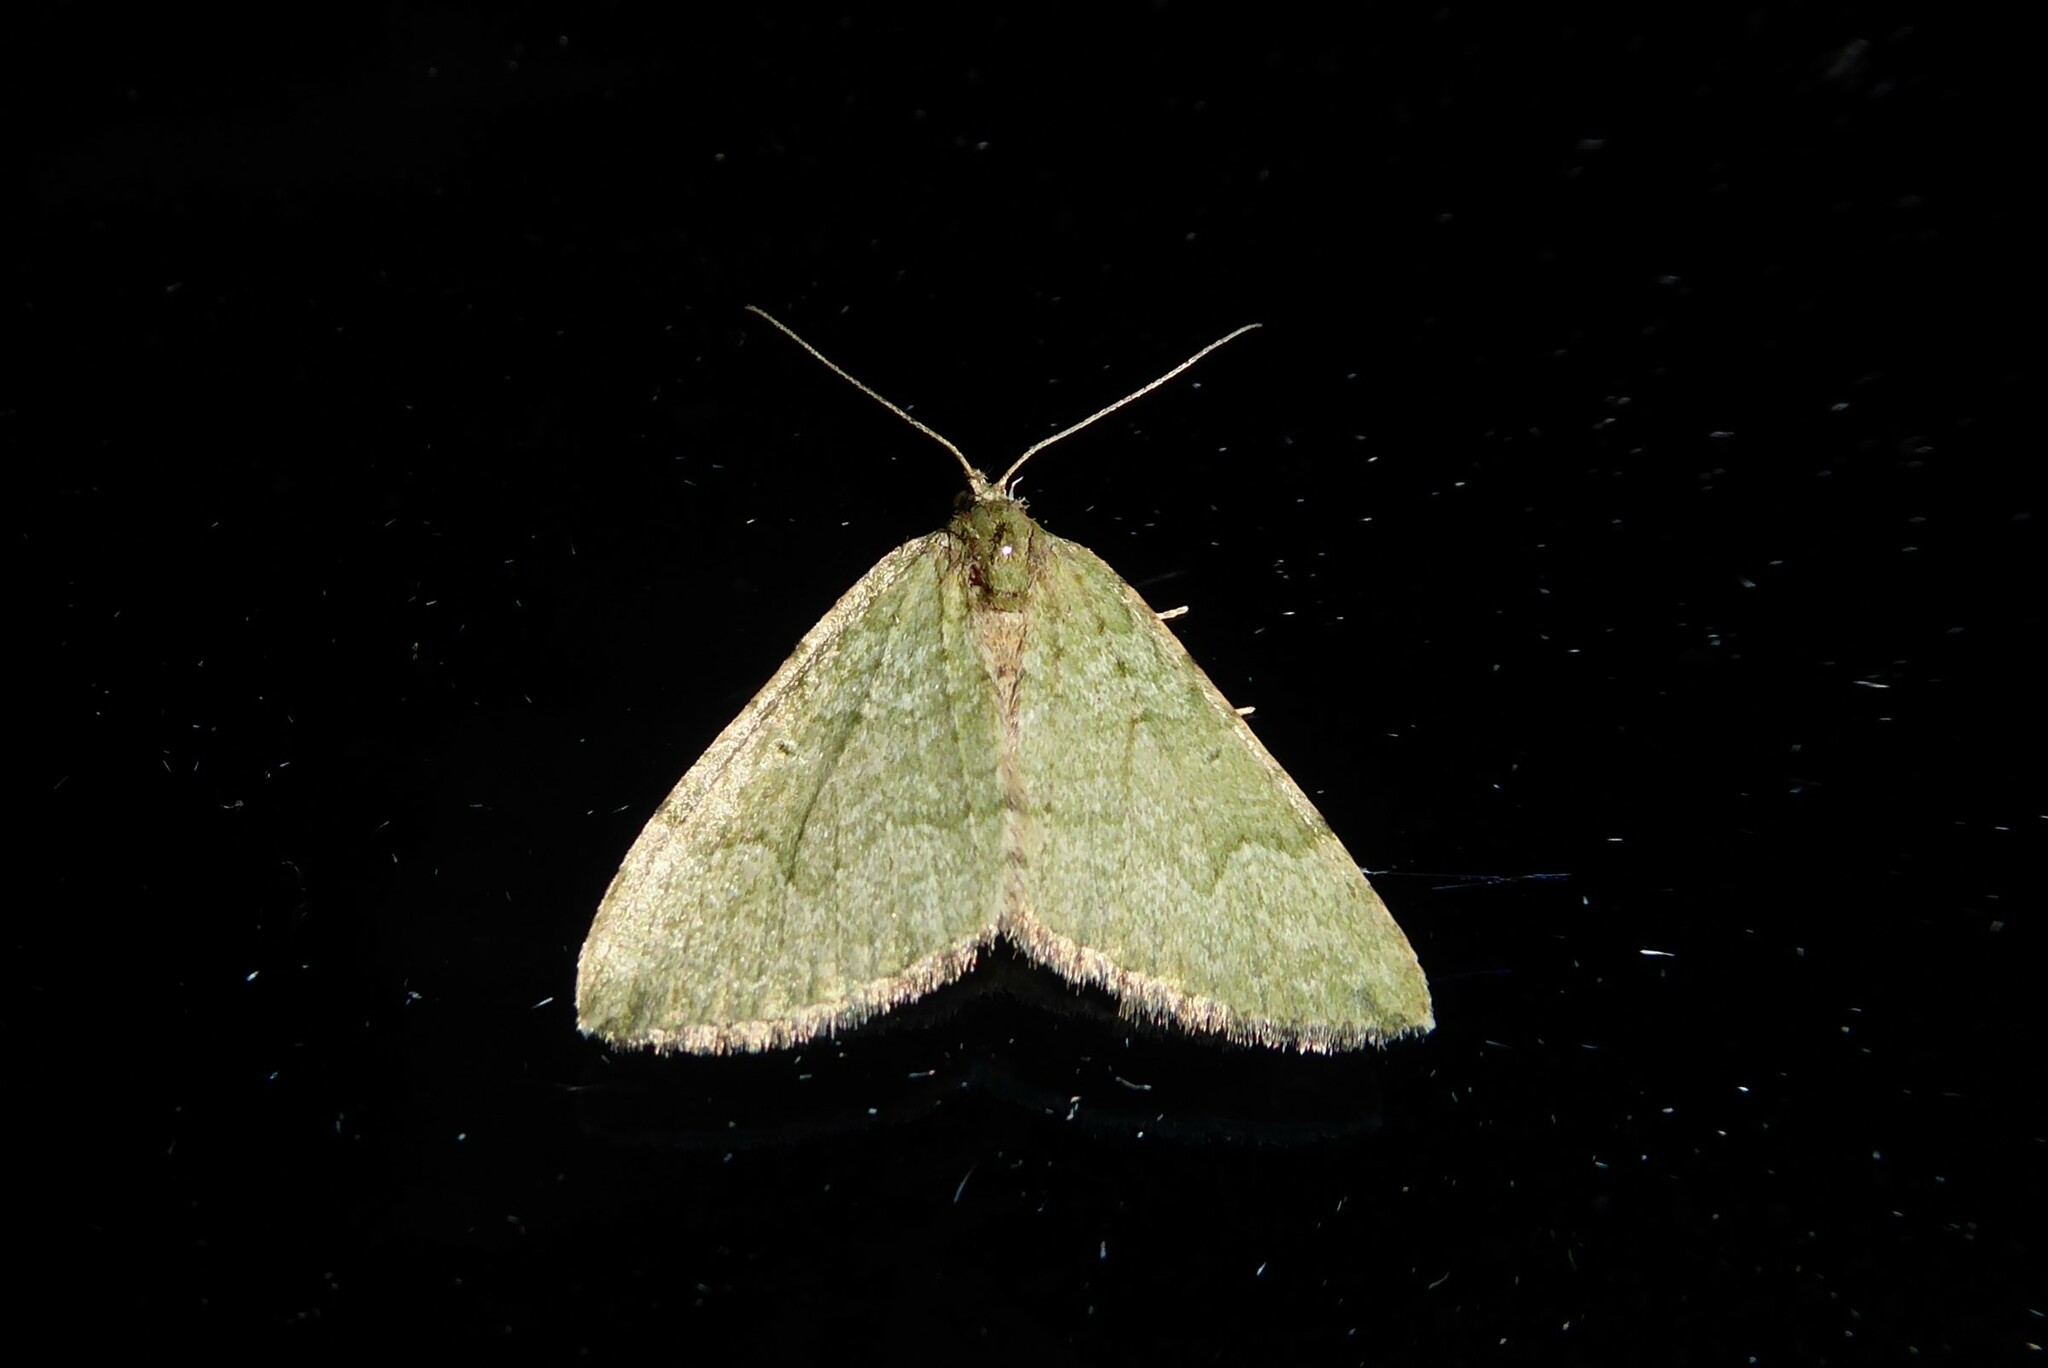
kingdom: Animalia
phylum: Arthropoda
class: Insecta
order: Lepidoptera
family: Geometridae
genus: Epyaxa
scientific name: Epyaxa rosearia
